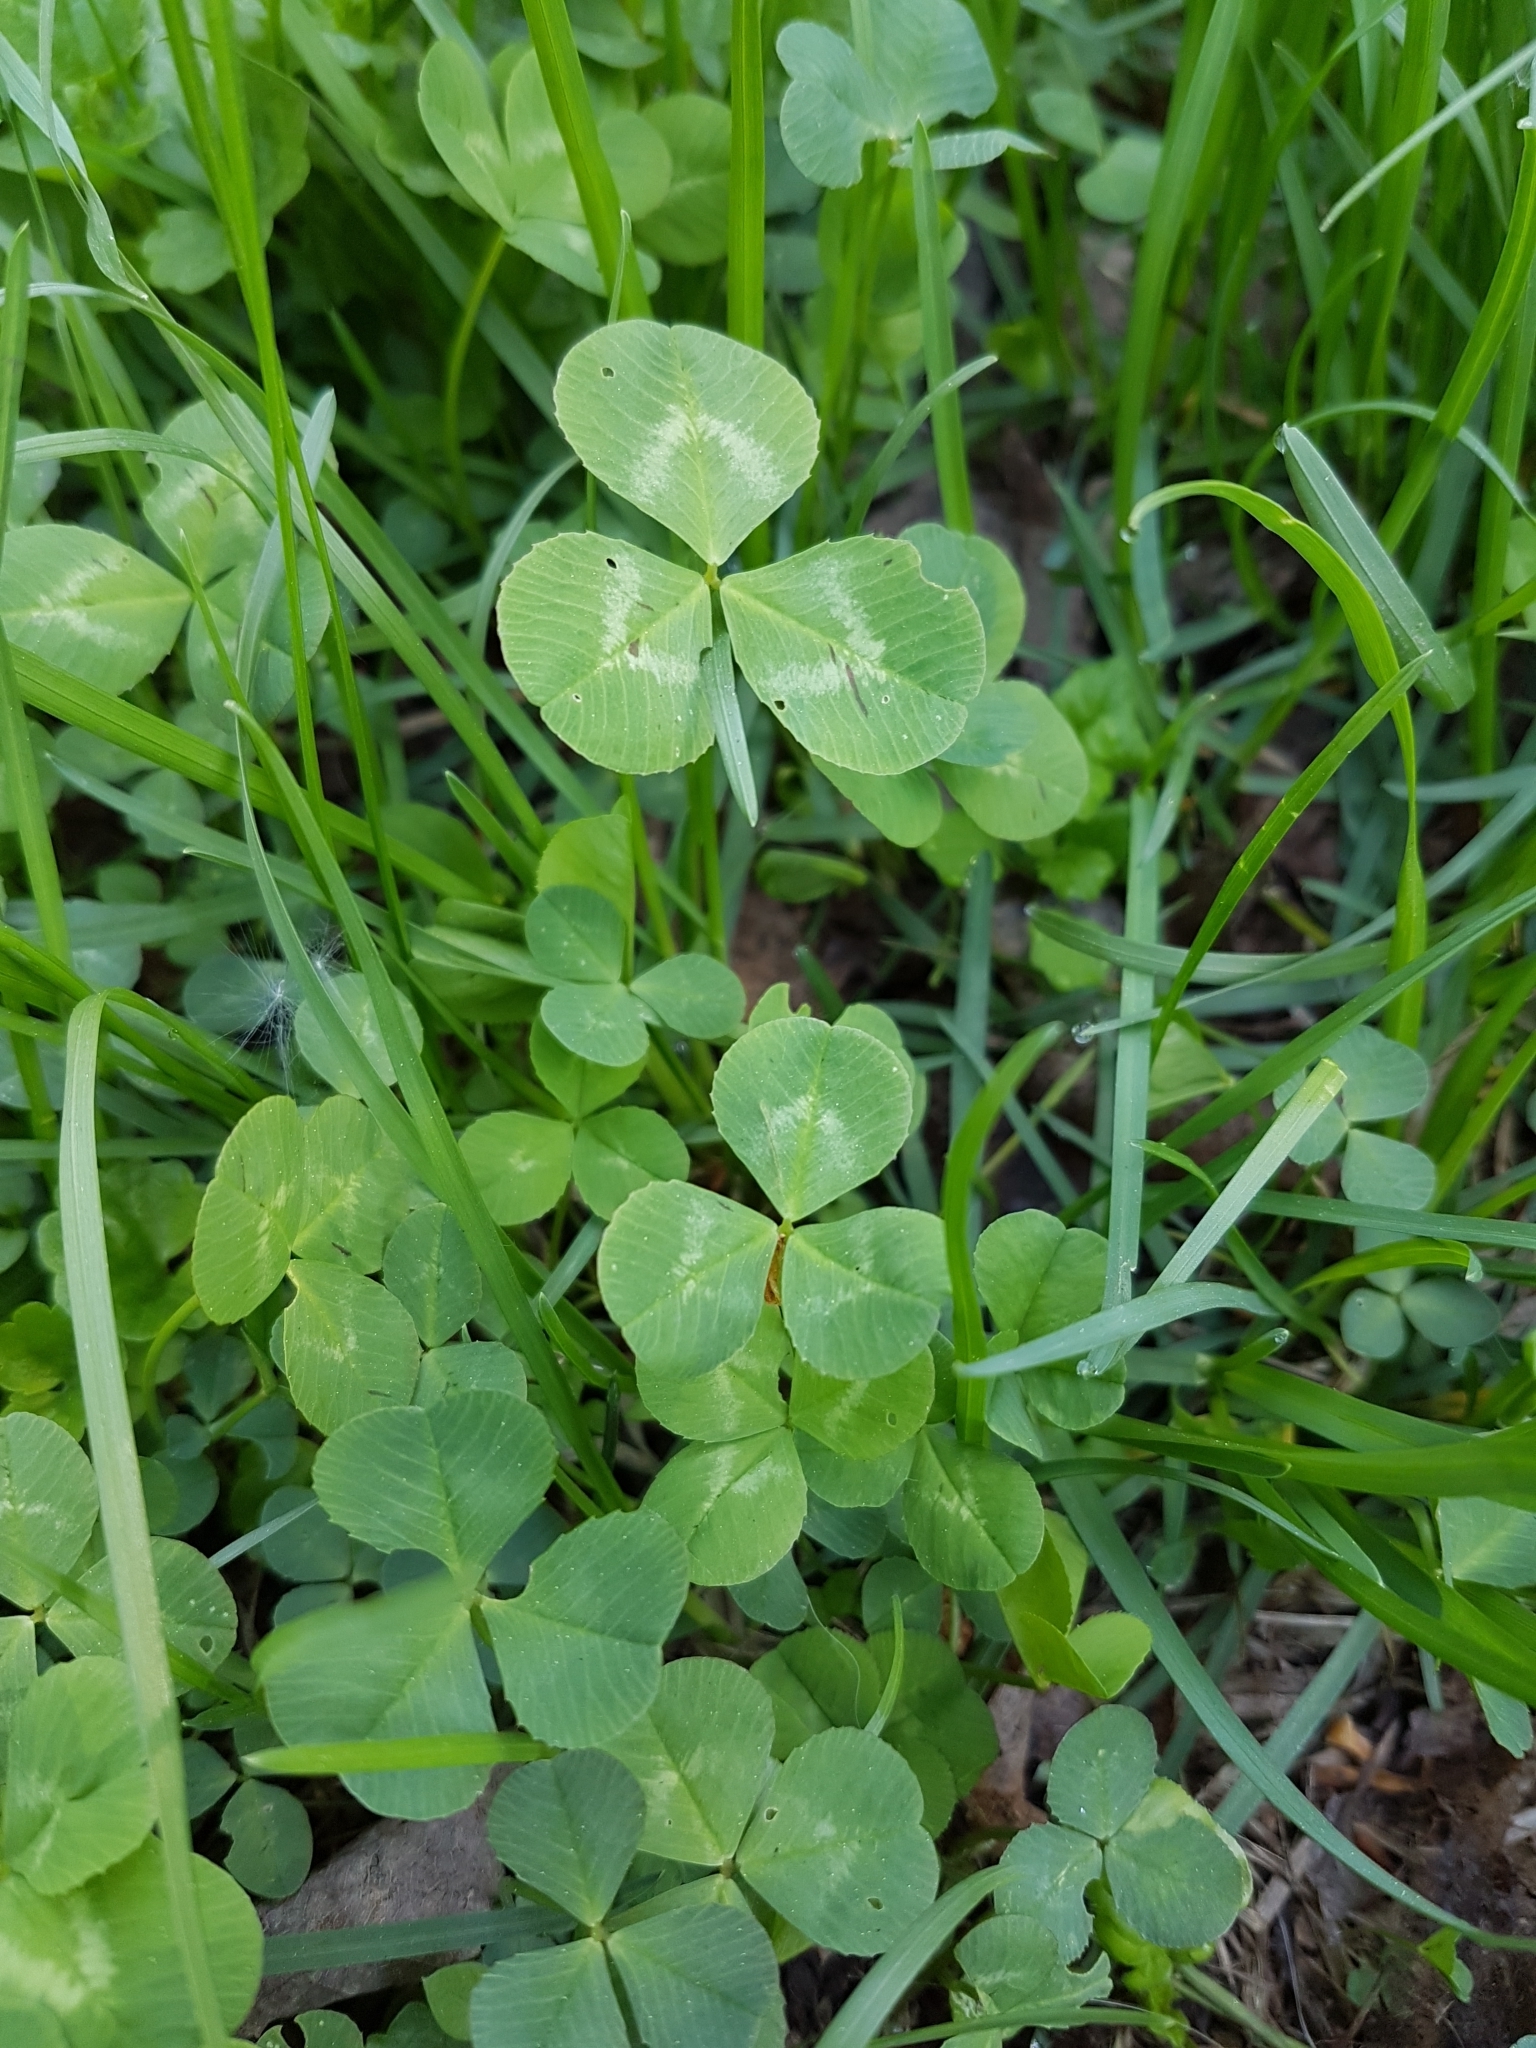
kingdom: Plantae
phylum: Tracheophyta
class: Magnoliopsida
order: Fabales
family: Fabaceae
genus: Trifolium
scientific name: Trifolium repens
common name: White clover
